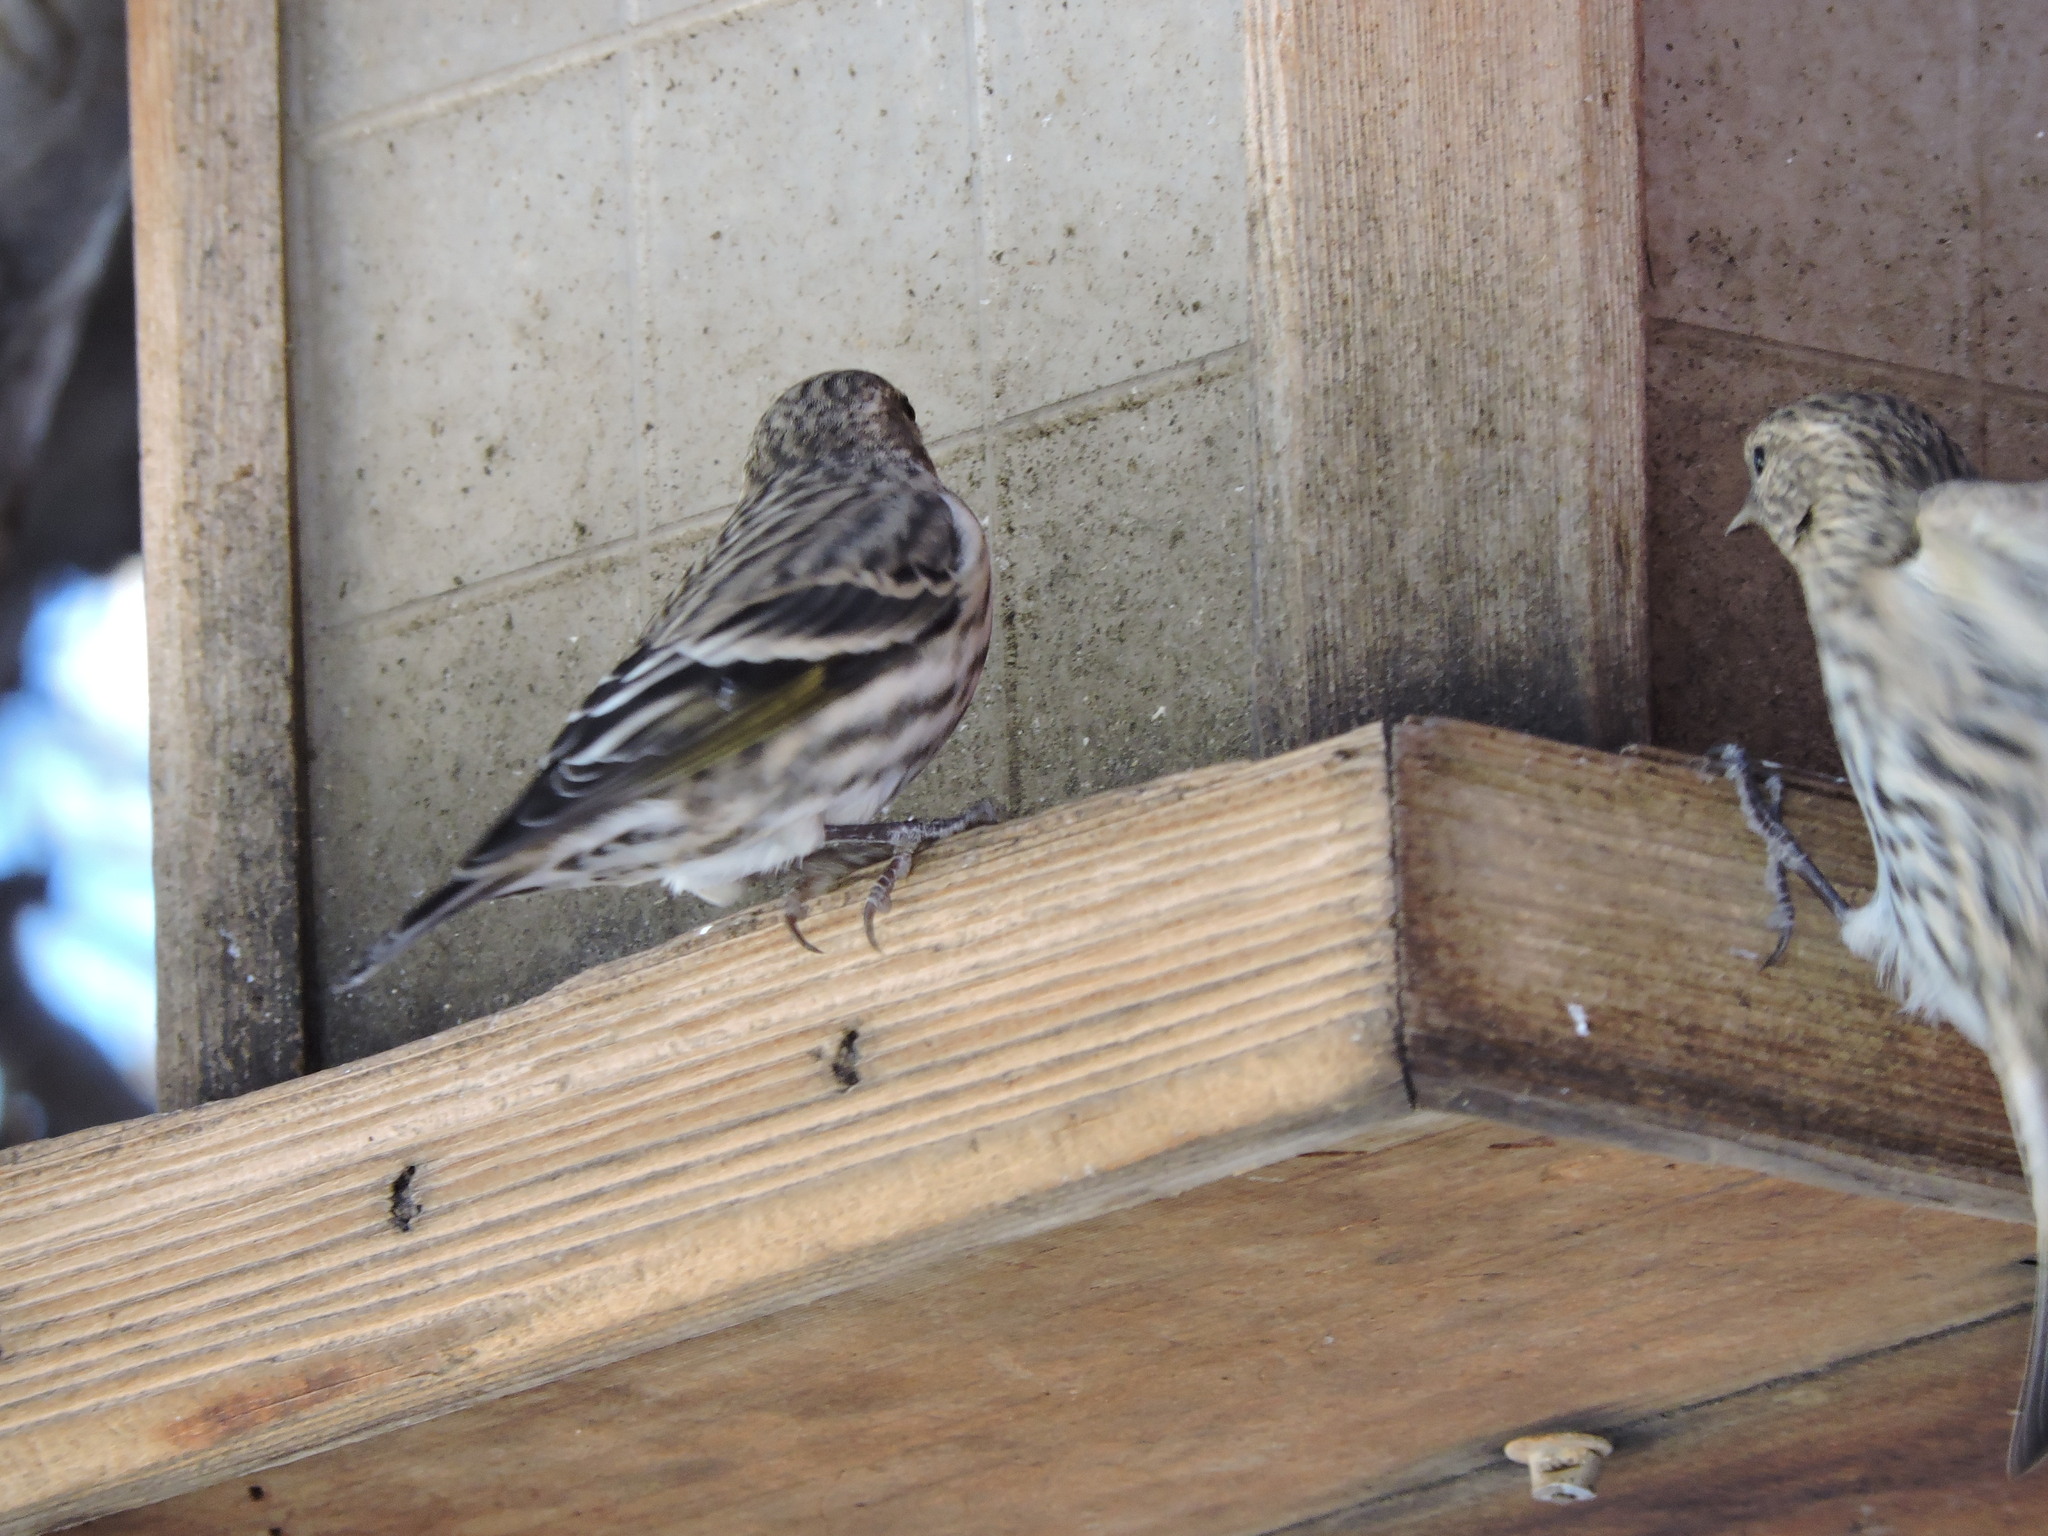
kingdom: Animalia
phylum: Chordata
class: Aves
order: Passeriformes
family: Fringillidae
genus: Spinus
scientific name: Spinus pinus
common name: Pine siskin
